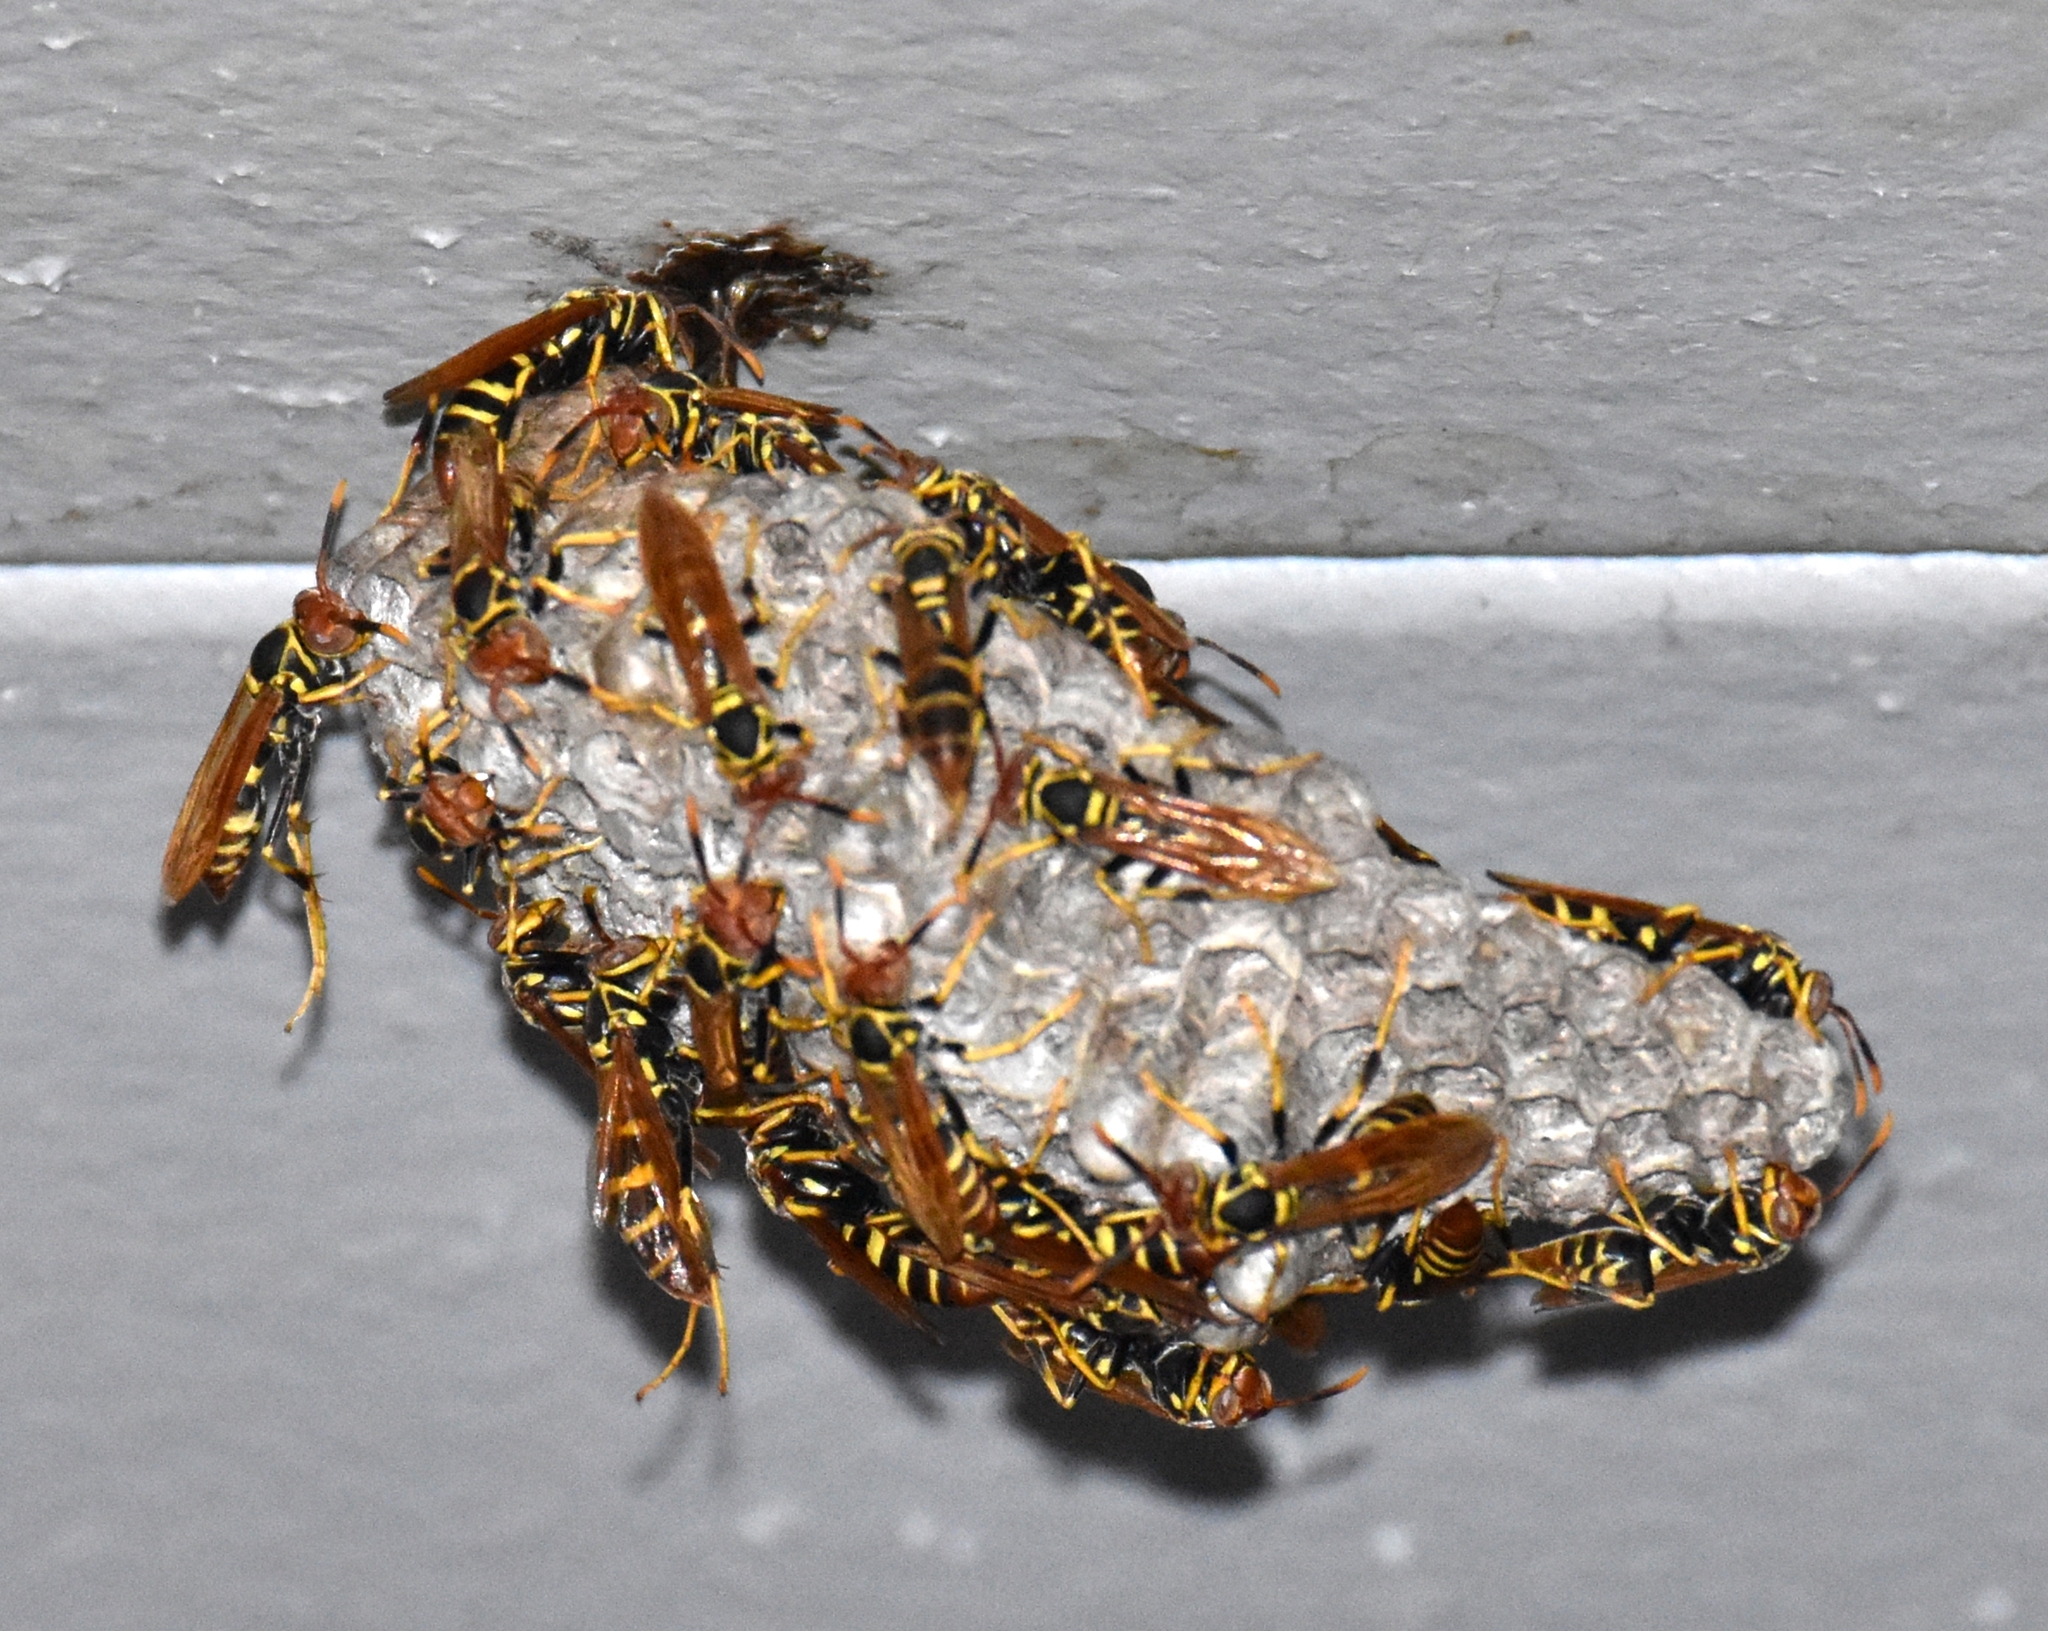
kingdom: Animalia
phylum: Arthropoda
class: Insecta
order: Hymenoptera
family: Eumenidae
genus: Polistes
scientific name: Polistes crinitus
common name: Jack spaniard
